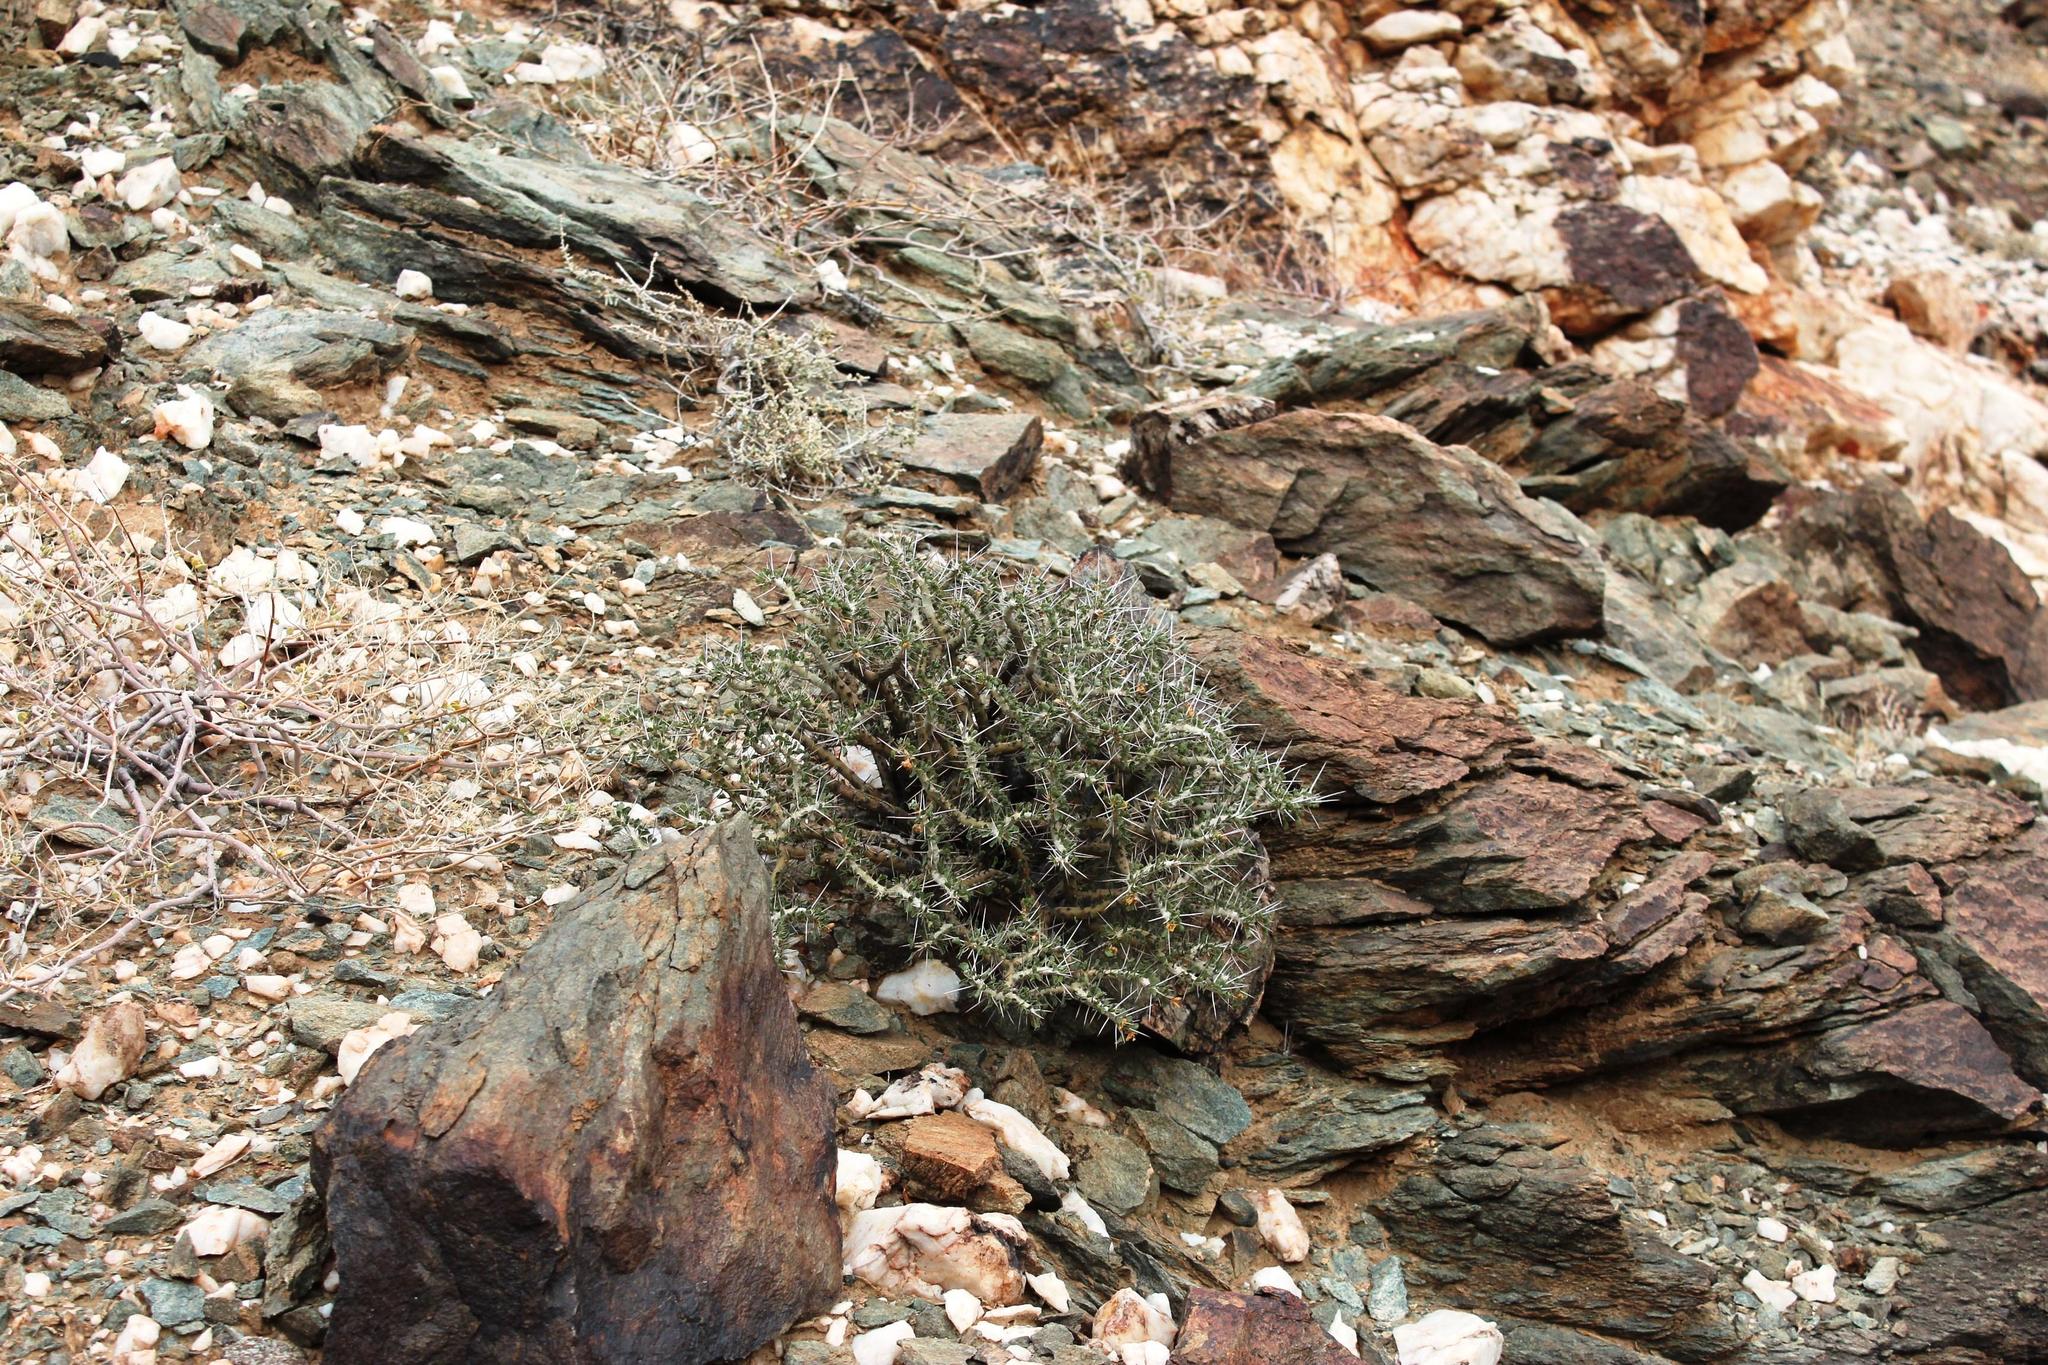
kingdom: Plantae
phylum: Tracheophyta
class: Magnoliopsida
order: Geraniales
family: Geraniaceae
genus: Monsonia
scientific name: Monsonia flavescens
